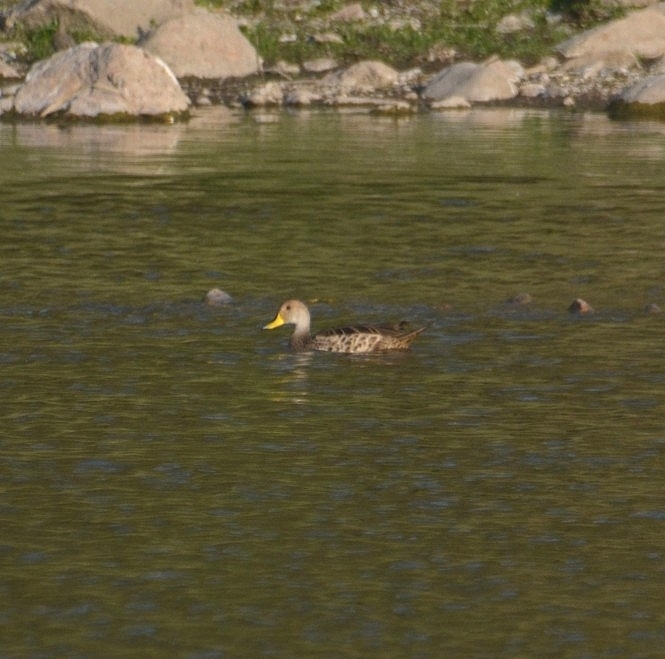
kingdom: Animalia
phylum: Chordata
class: Aves
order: Anseriformes
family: Anatidae
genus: Anas
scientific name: Anas georgica
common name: Yellow-billed pintail
